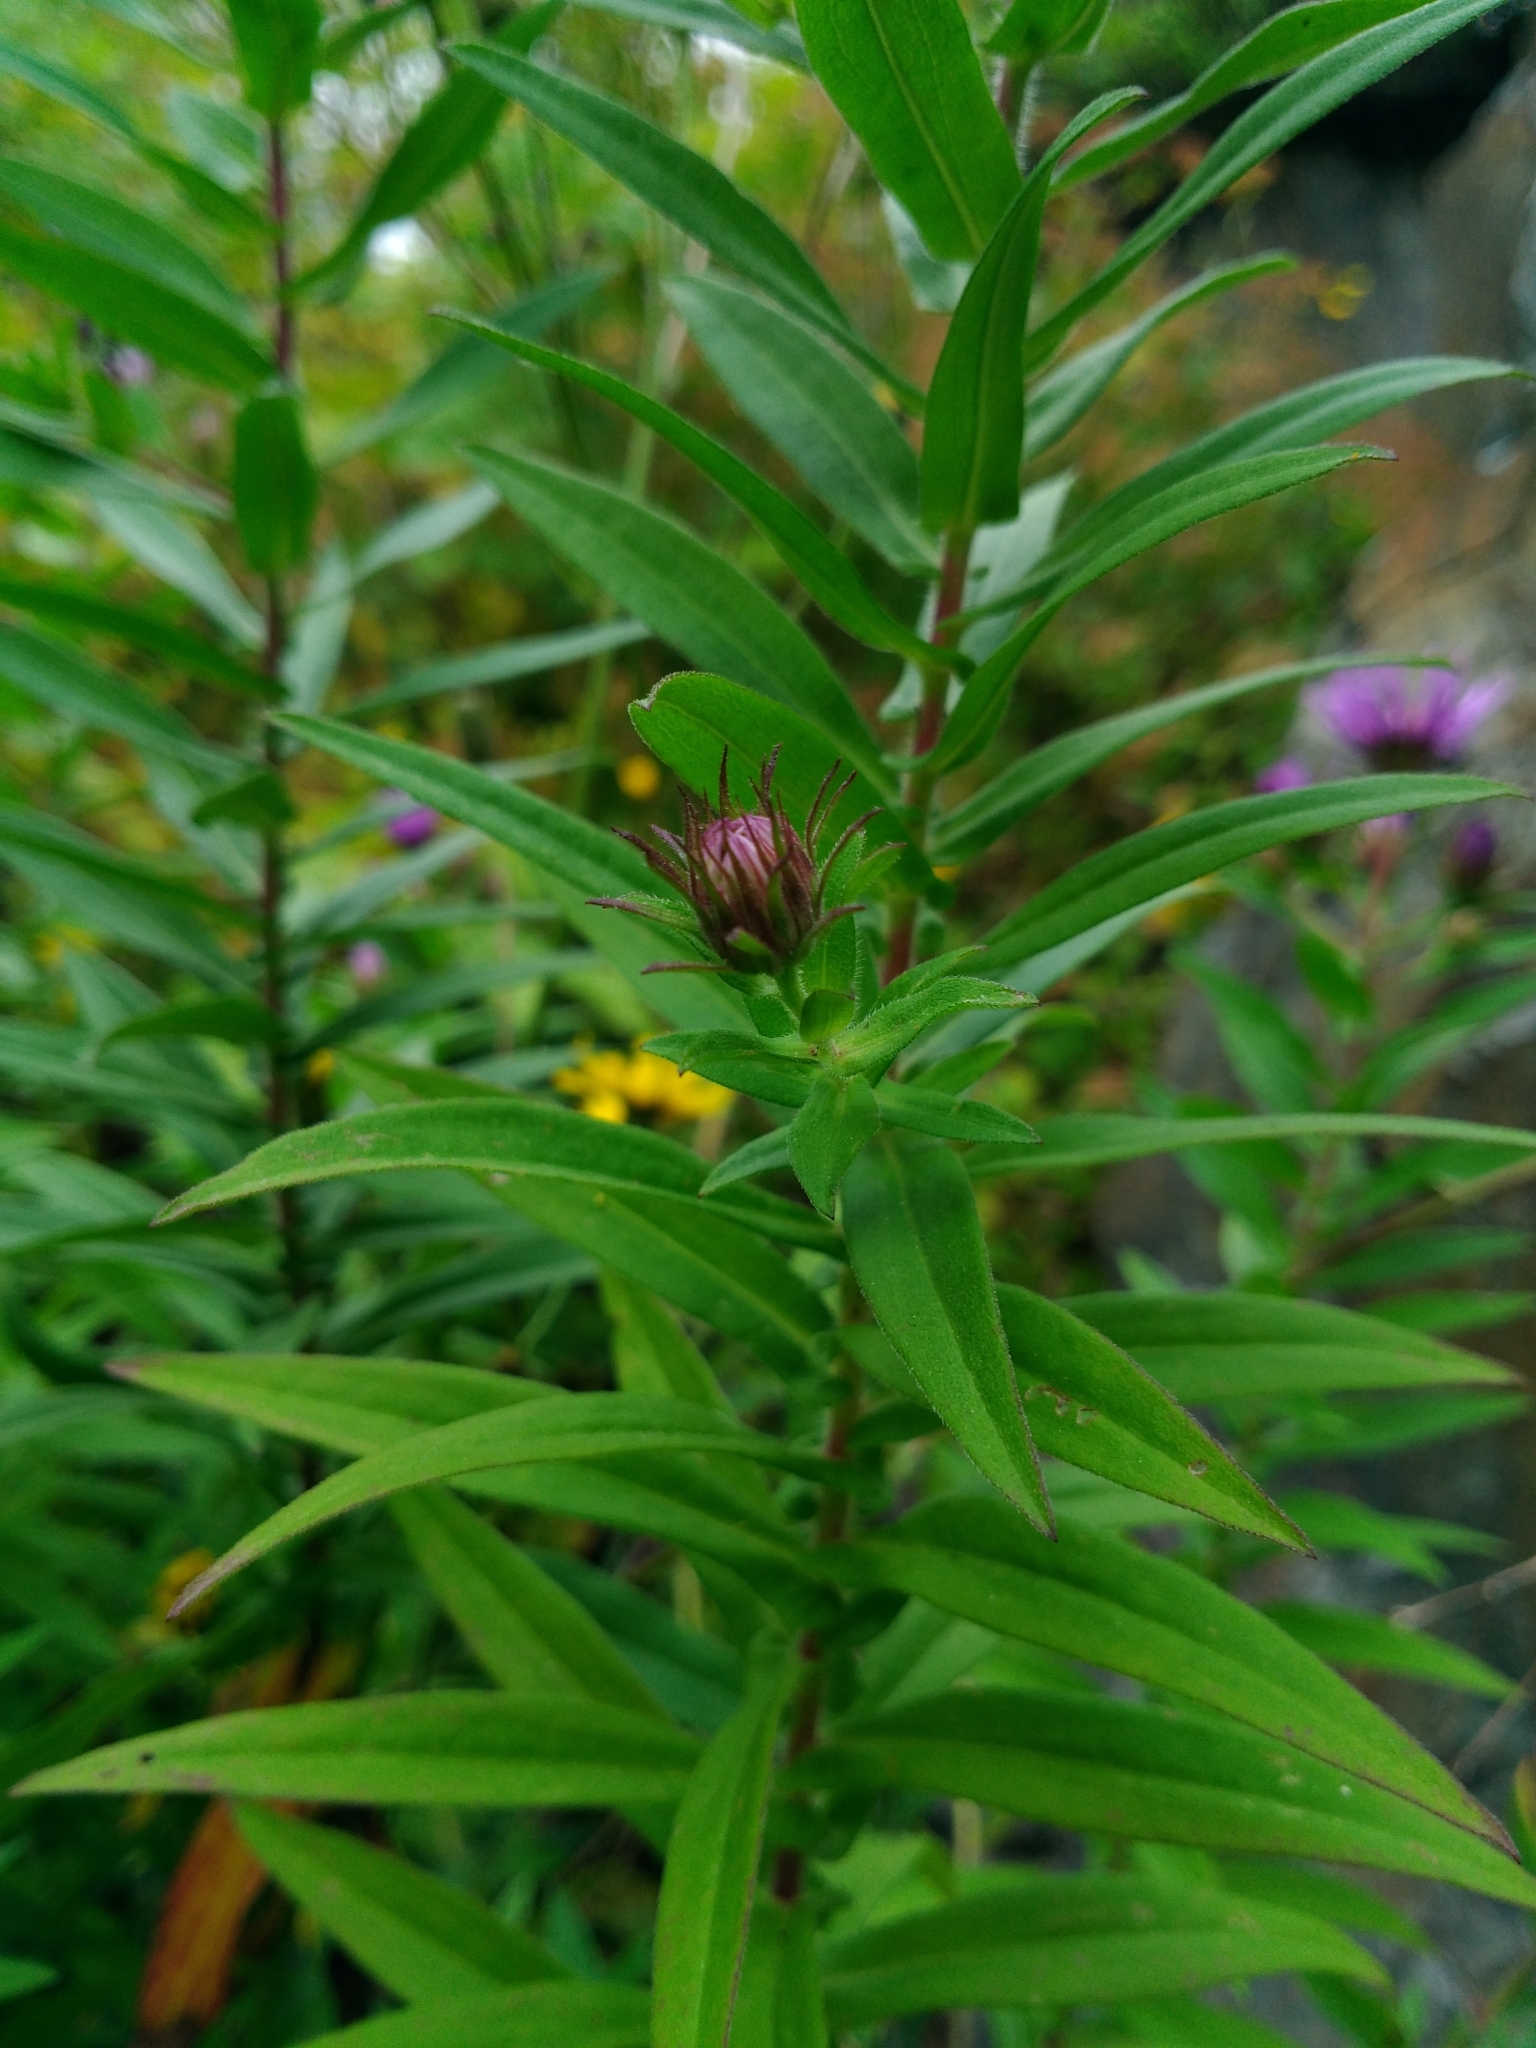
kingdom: Plantae
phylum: Tracheophyta
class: Magnoliopsida
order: Asterales
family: Asteraceae
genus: Symphyotrichum
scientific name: Symphyotrichum novae-angliae
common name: Michaelmas daisy
